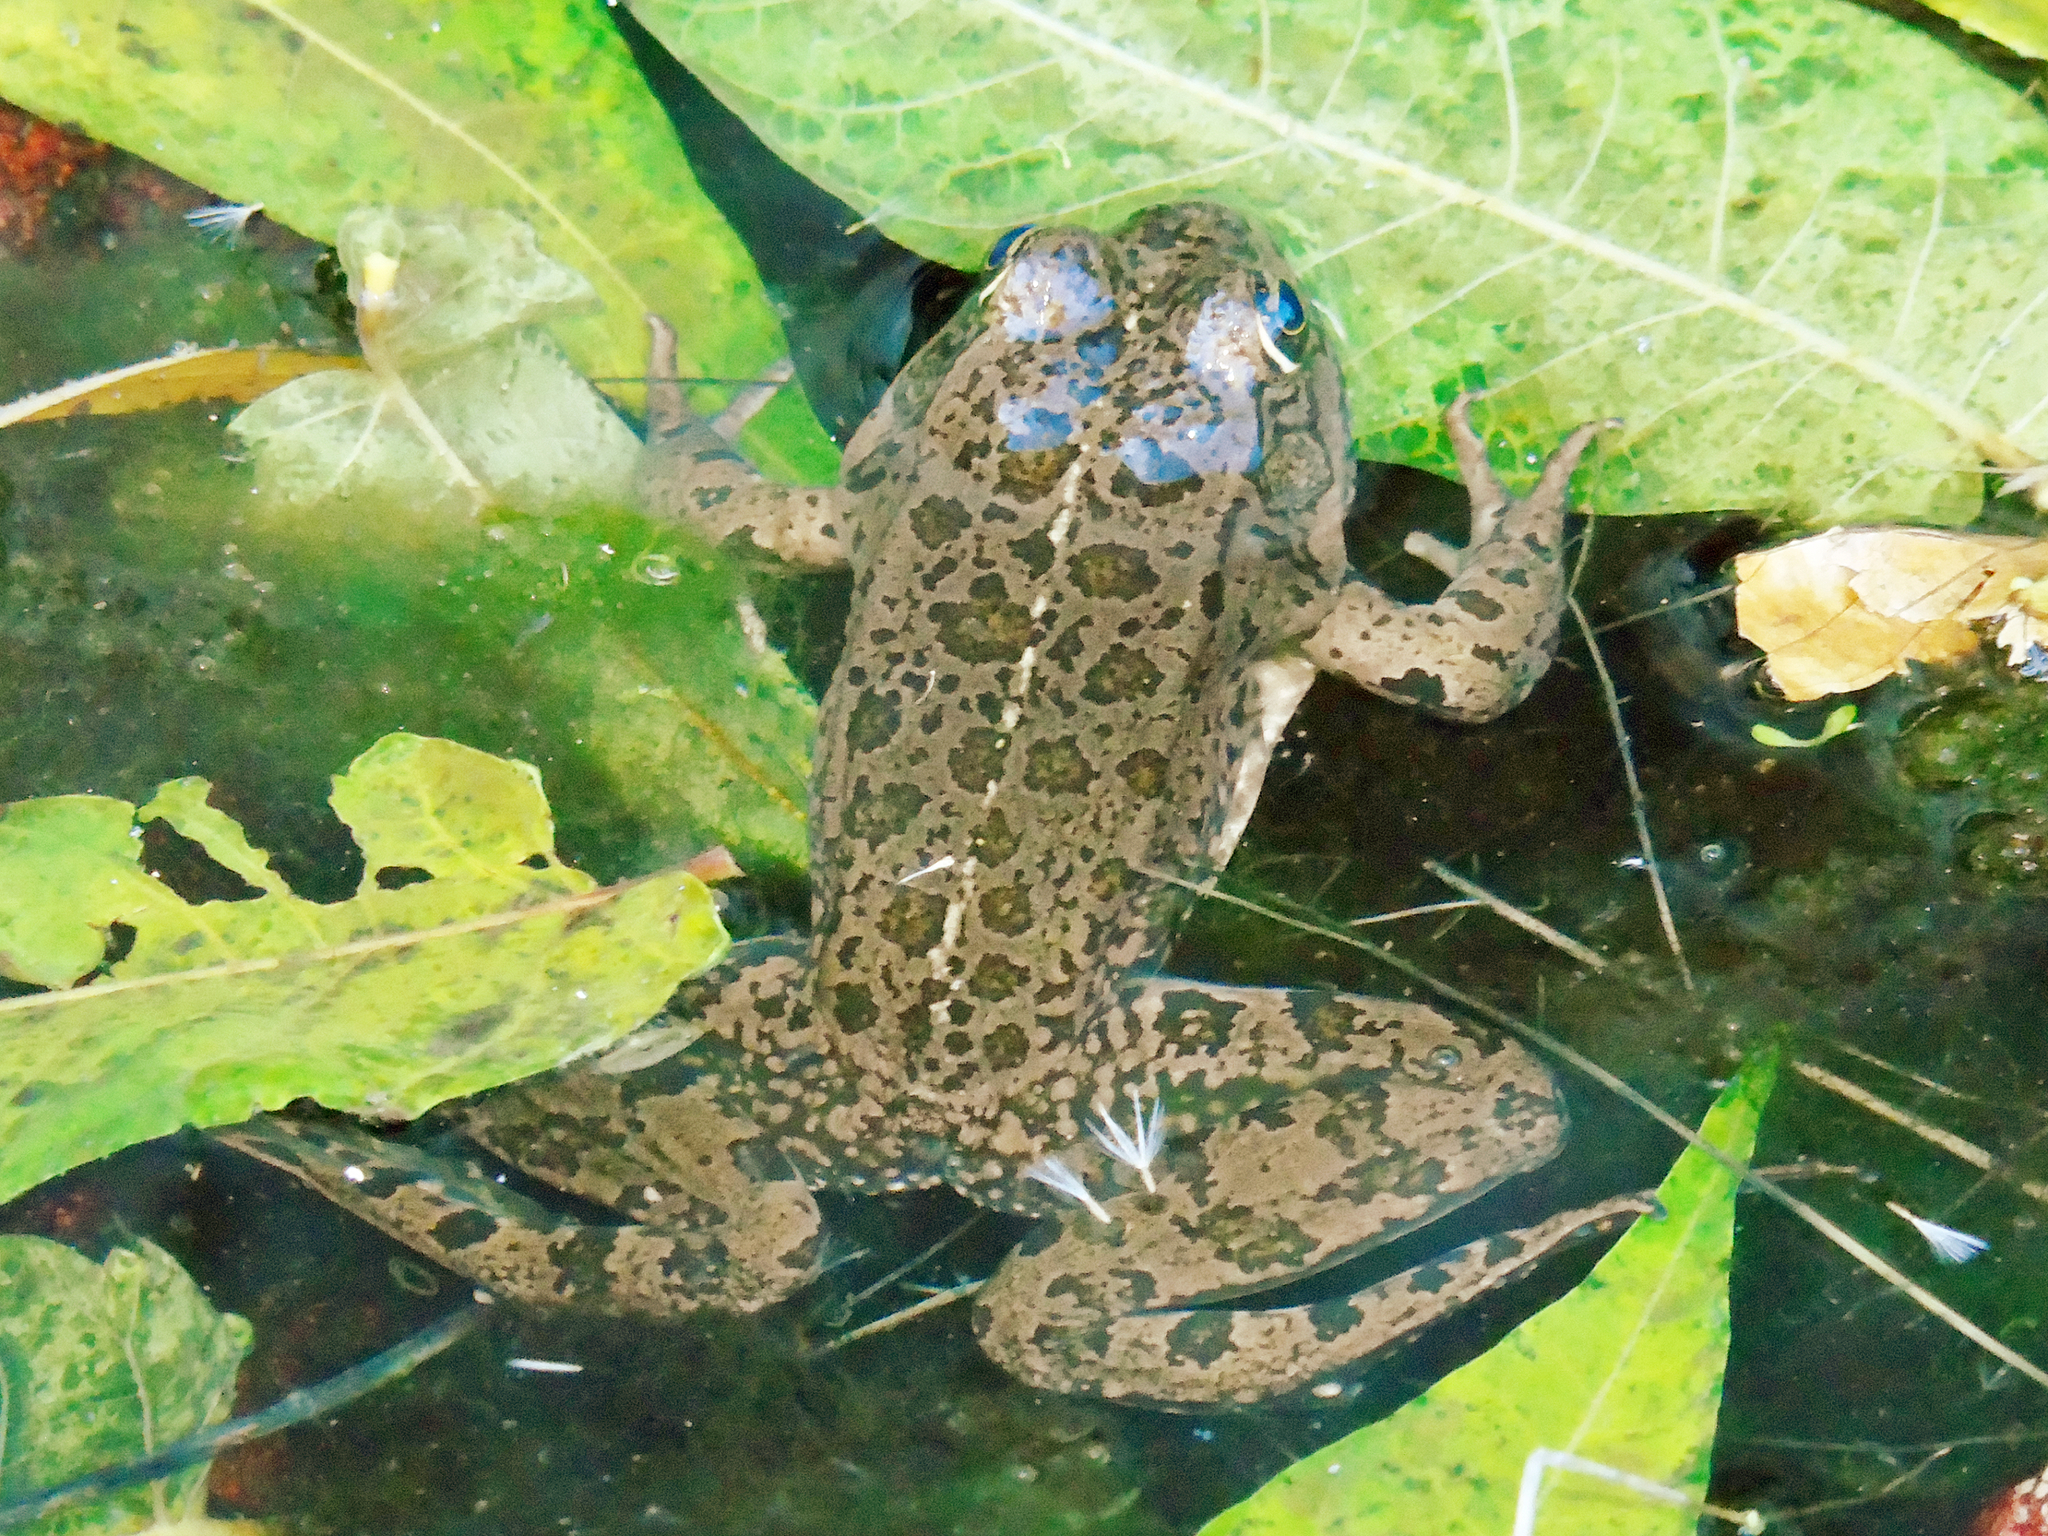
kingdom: Animalia
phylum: Chordata
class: Amphibia
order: Anura
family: Ranidae
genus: Pelophylax
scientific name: Pelophylax ridibundus
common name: Marsh frog
